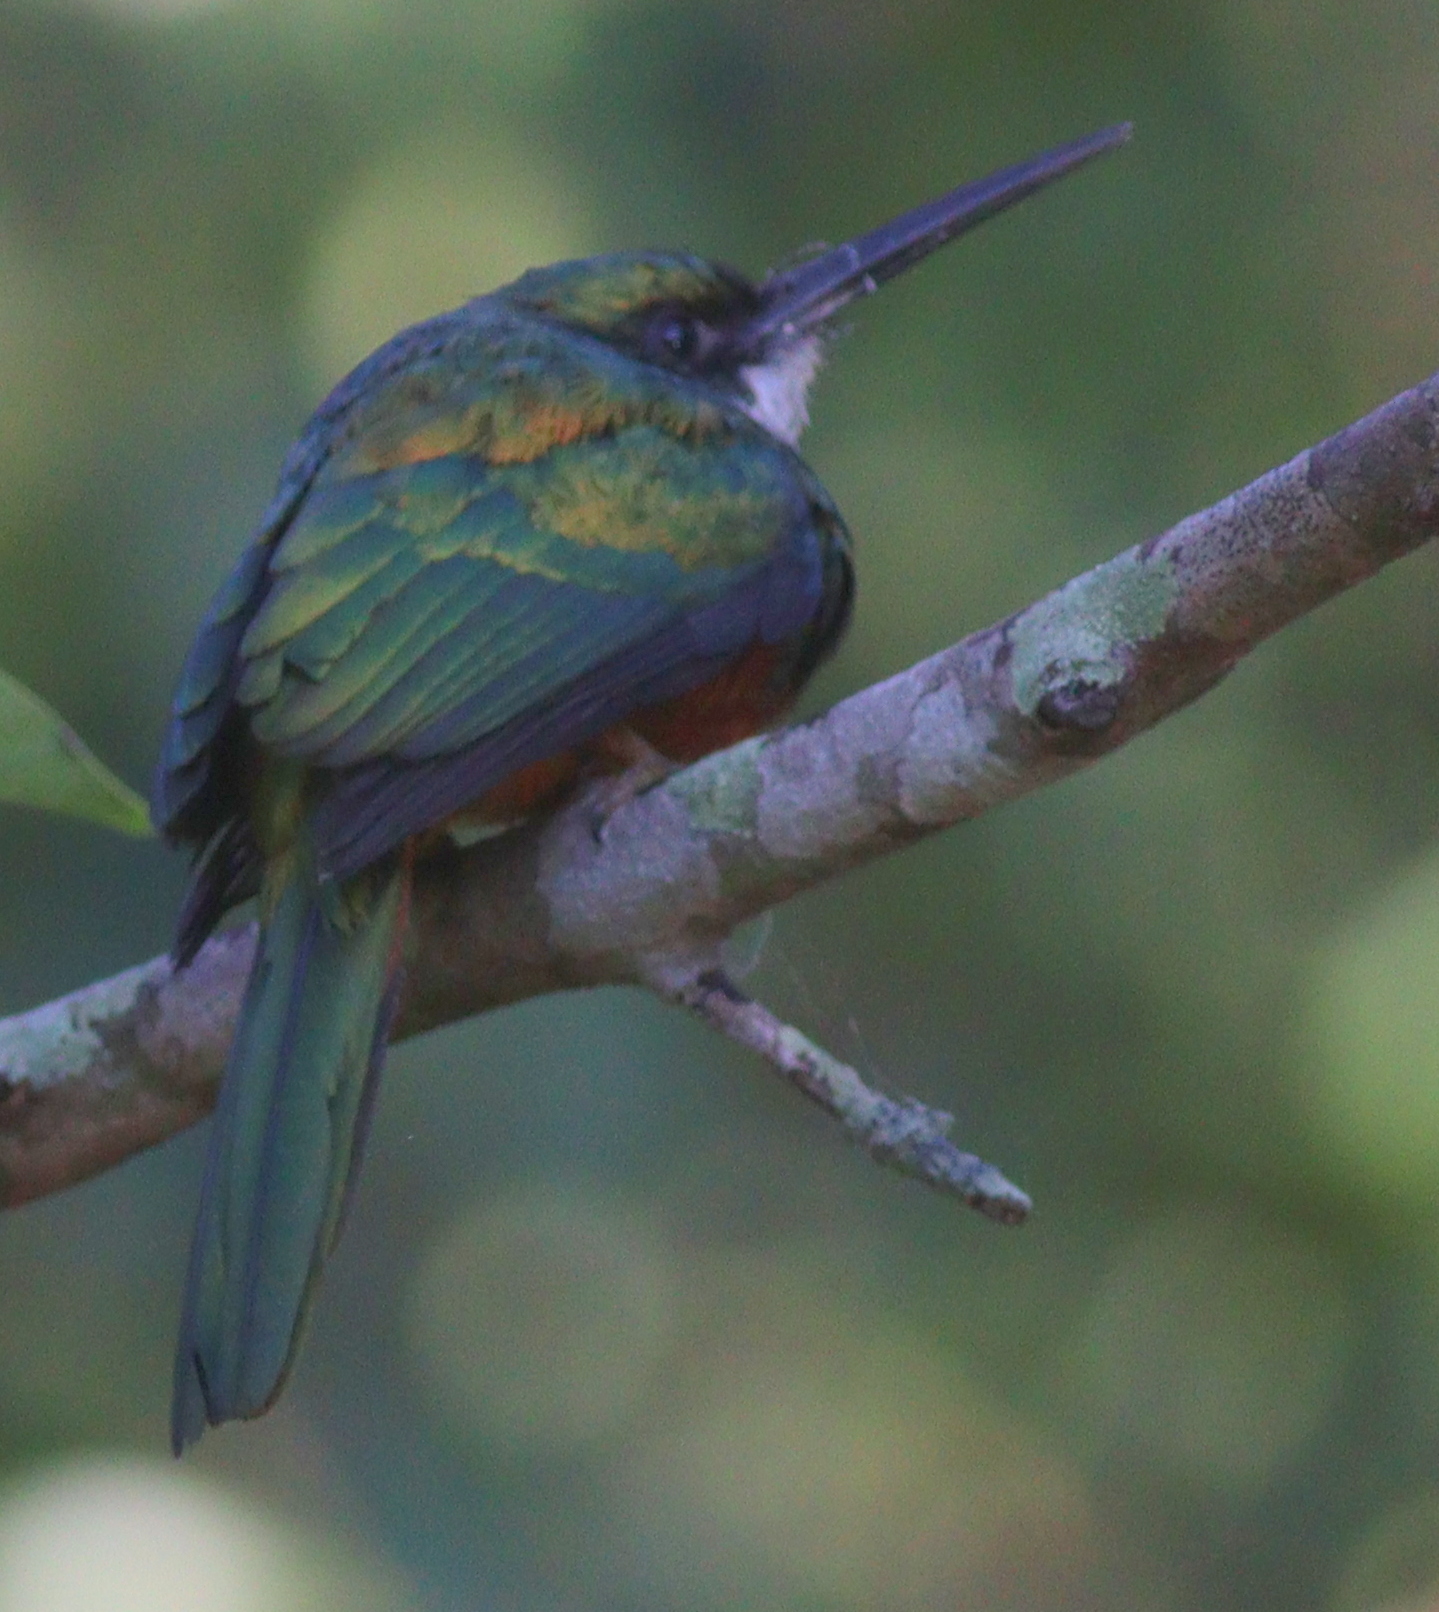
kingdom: Animalia
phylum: Chordata
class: Aves
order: Piciformes
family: Galbulidae
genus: Galbula
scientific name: Galbula ruficauda
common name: Rufous-tailed jacamar
